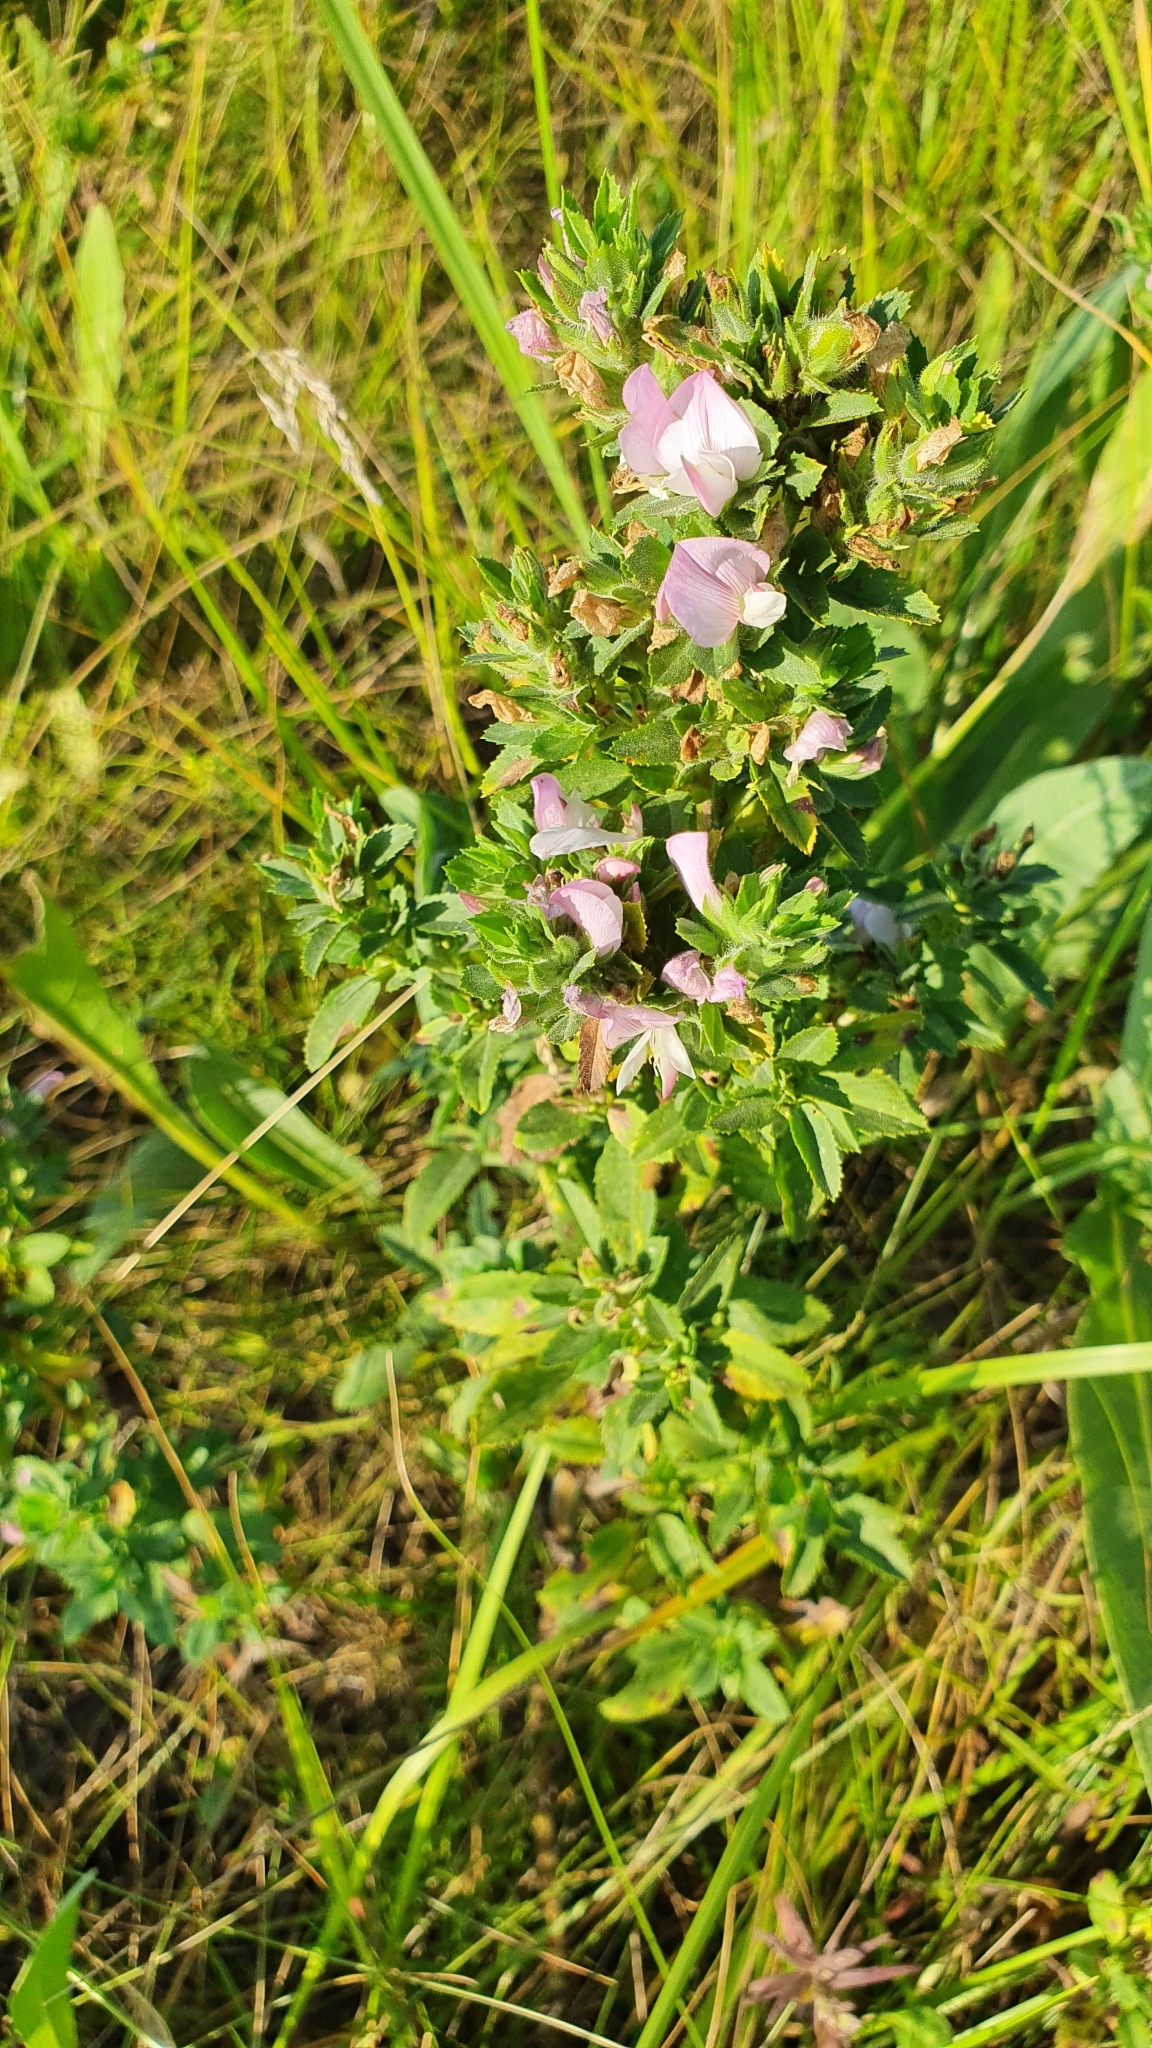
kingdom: Plantae
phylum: Tracheophyta
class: Magnoliopsida
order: Fabales
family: Fabaceae
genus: Ononis
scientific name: Ononis arvensis
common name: Field restharrow
